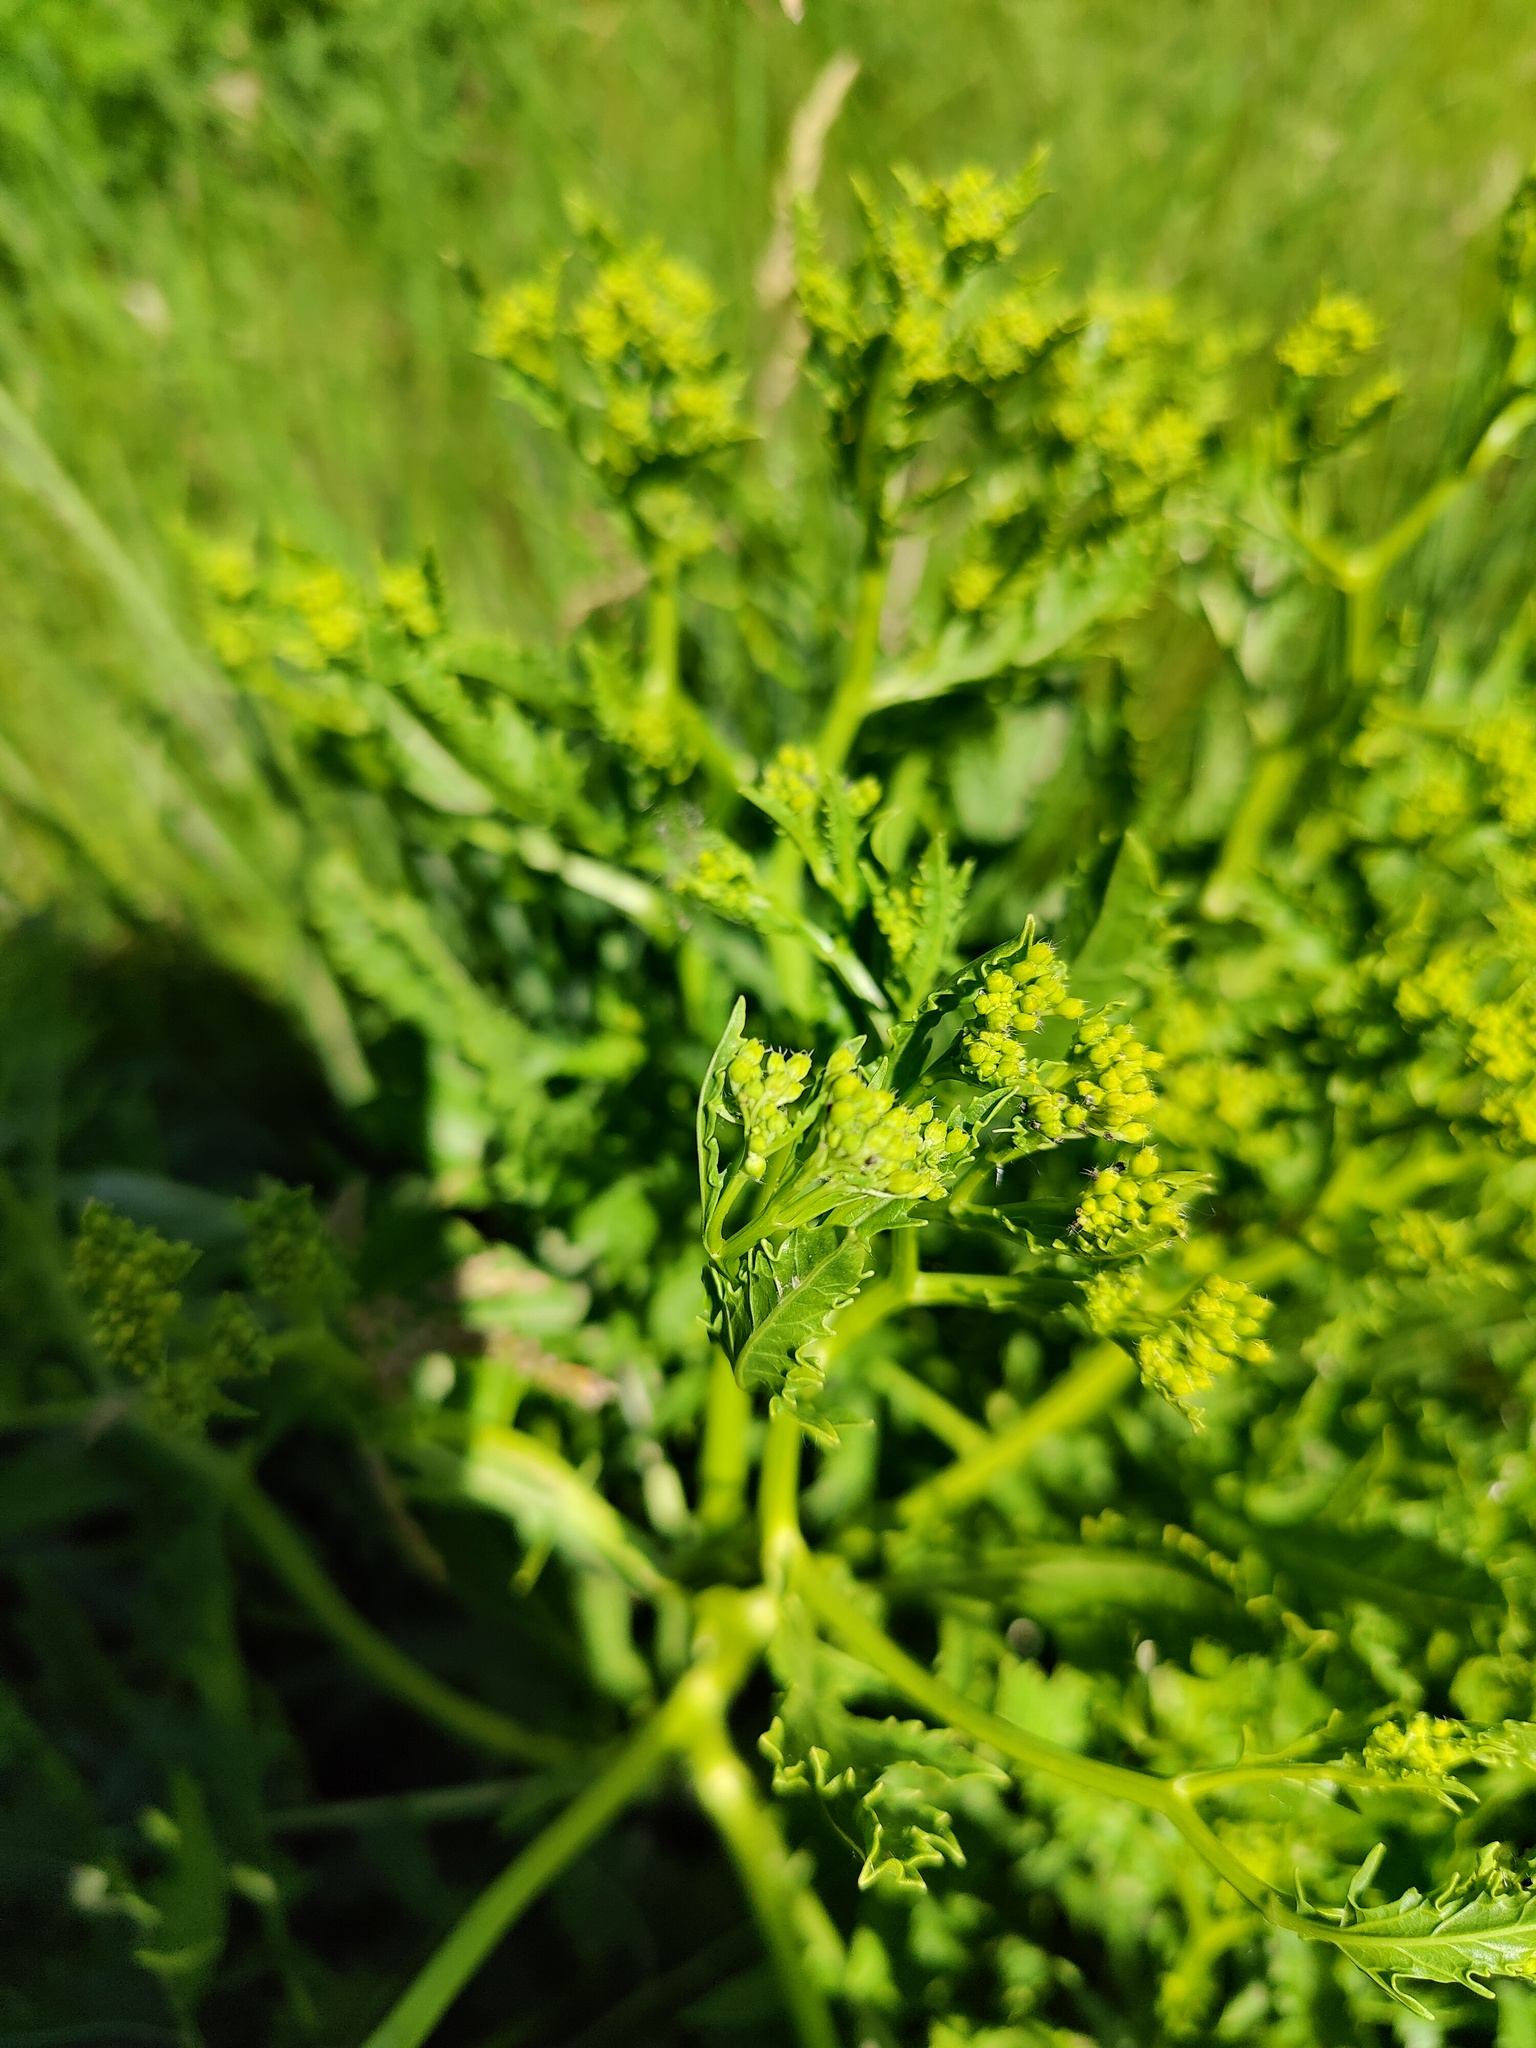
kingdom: Plantae
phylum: Tracheophyta
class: Magnoliopsida
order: Brassicales
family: Brassicaceae
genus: Rapistrum
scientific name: Rapistrum perenne
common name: Steppe cabbage
